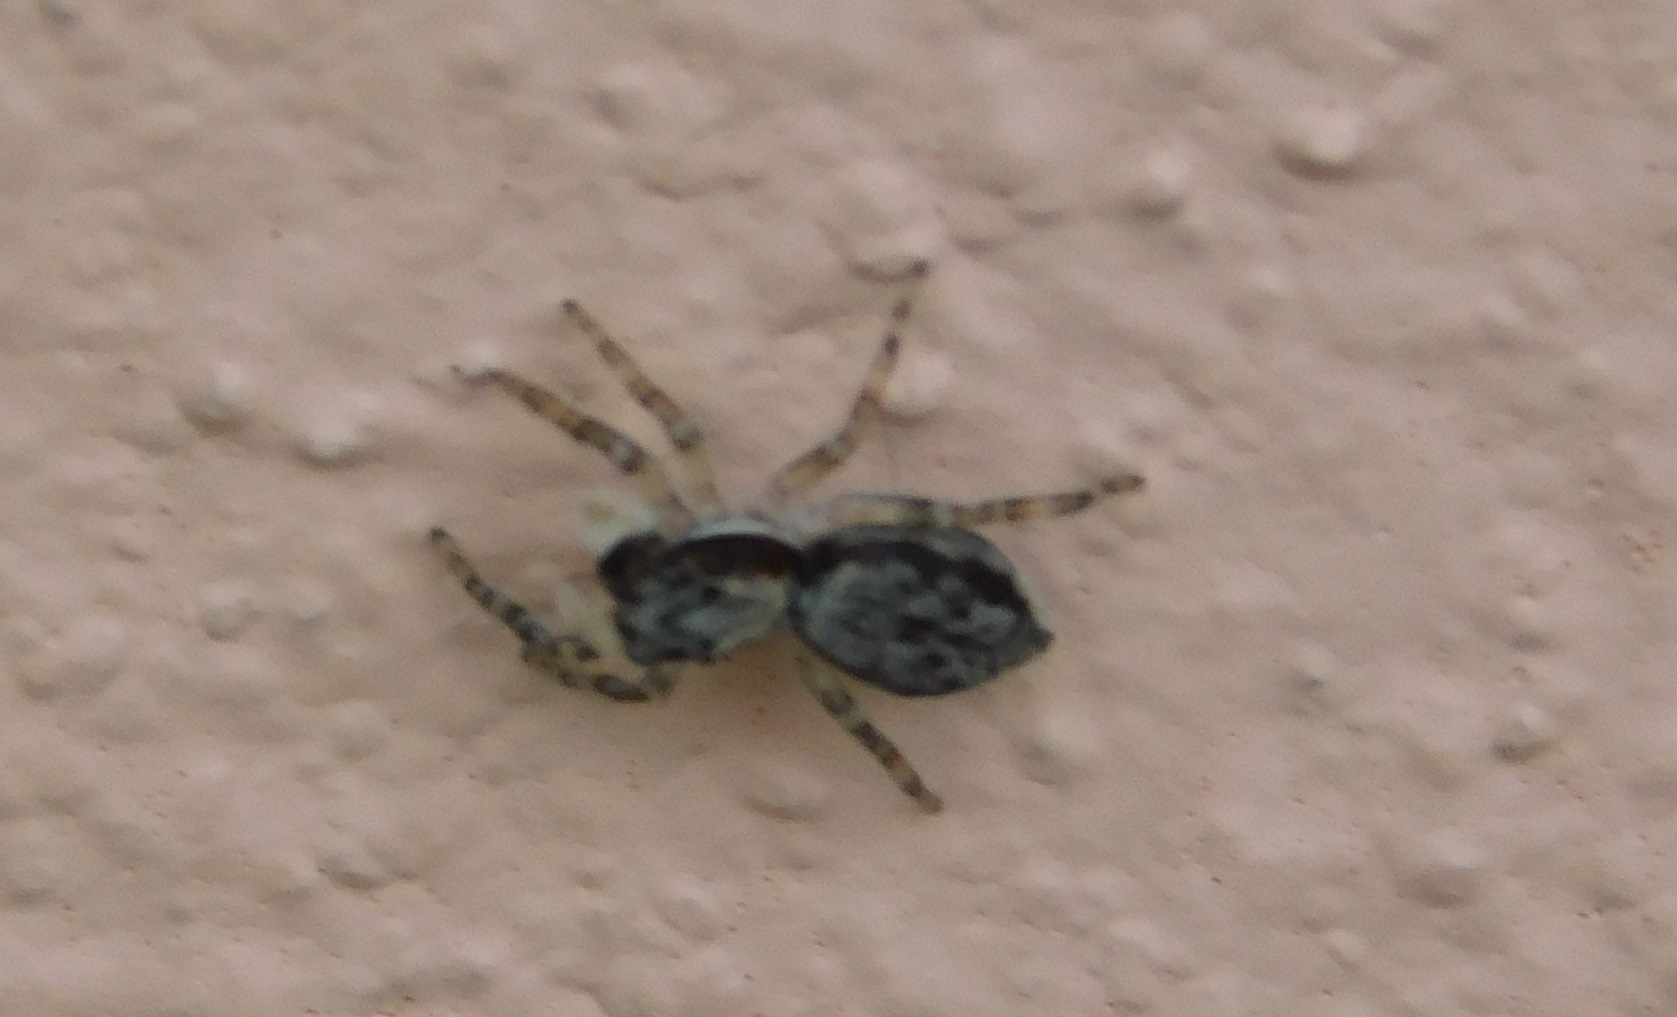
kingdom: Animalia
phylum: Arthropoda
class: Arachnida
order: Araneae
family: Salticidae
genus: Menemerus
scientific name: Menemerus bivittatus
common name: Gray wall jumper
